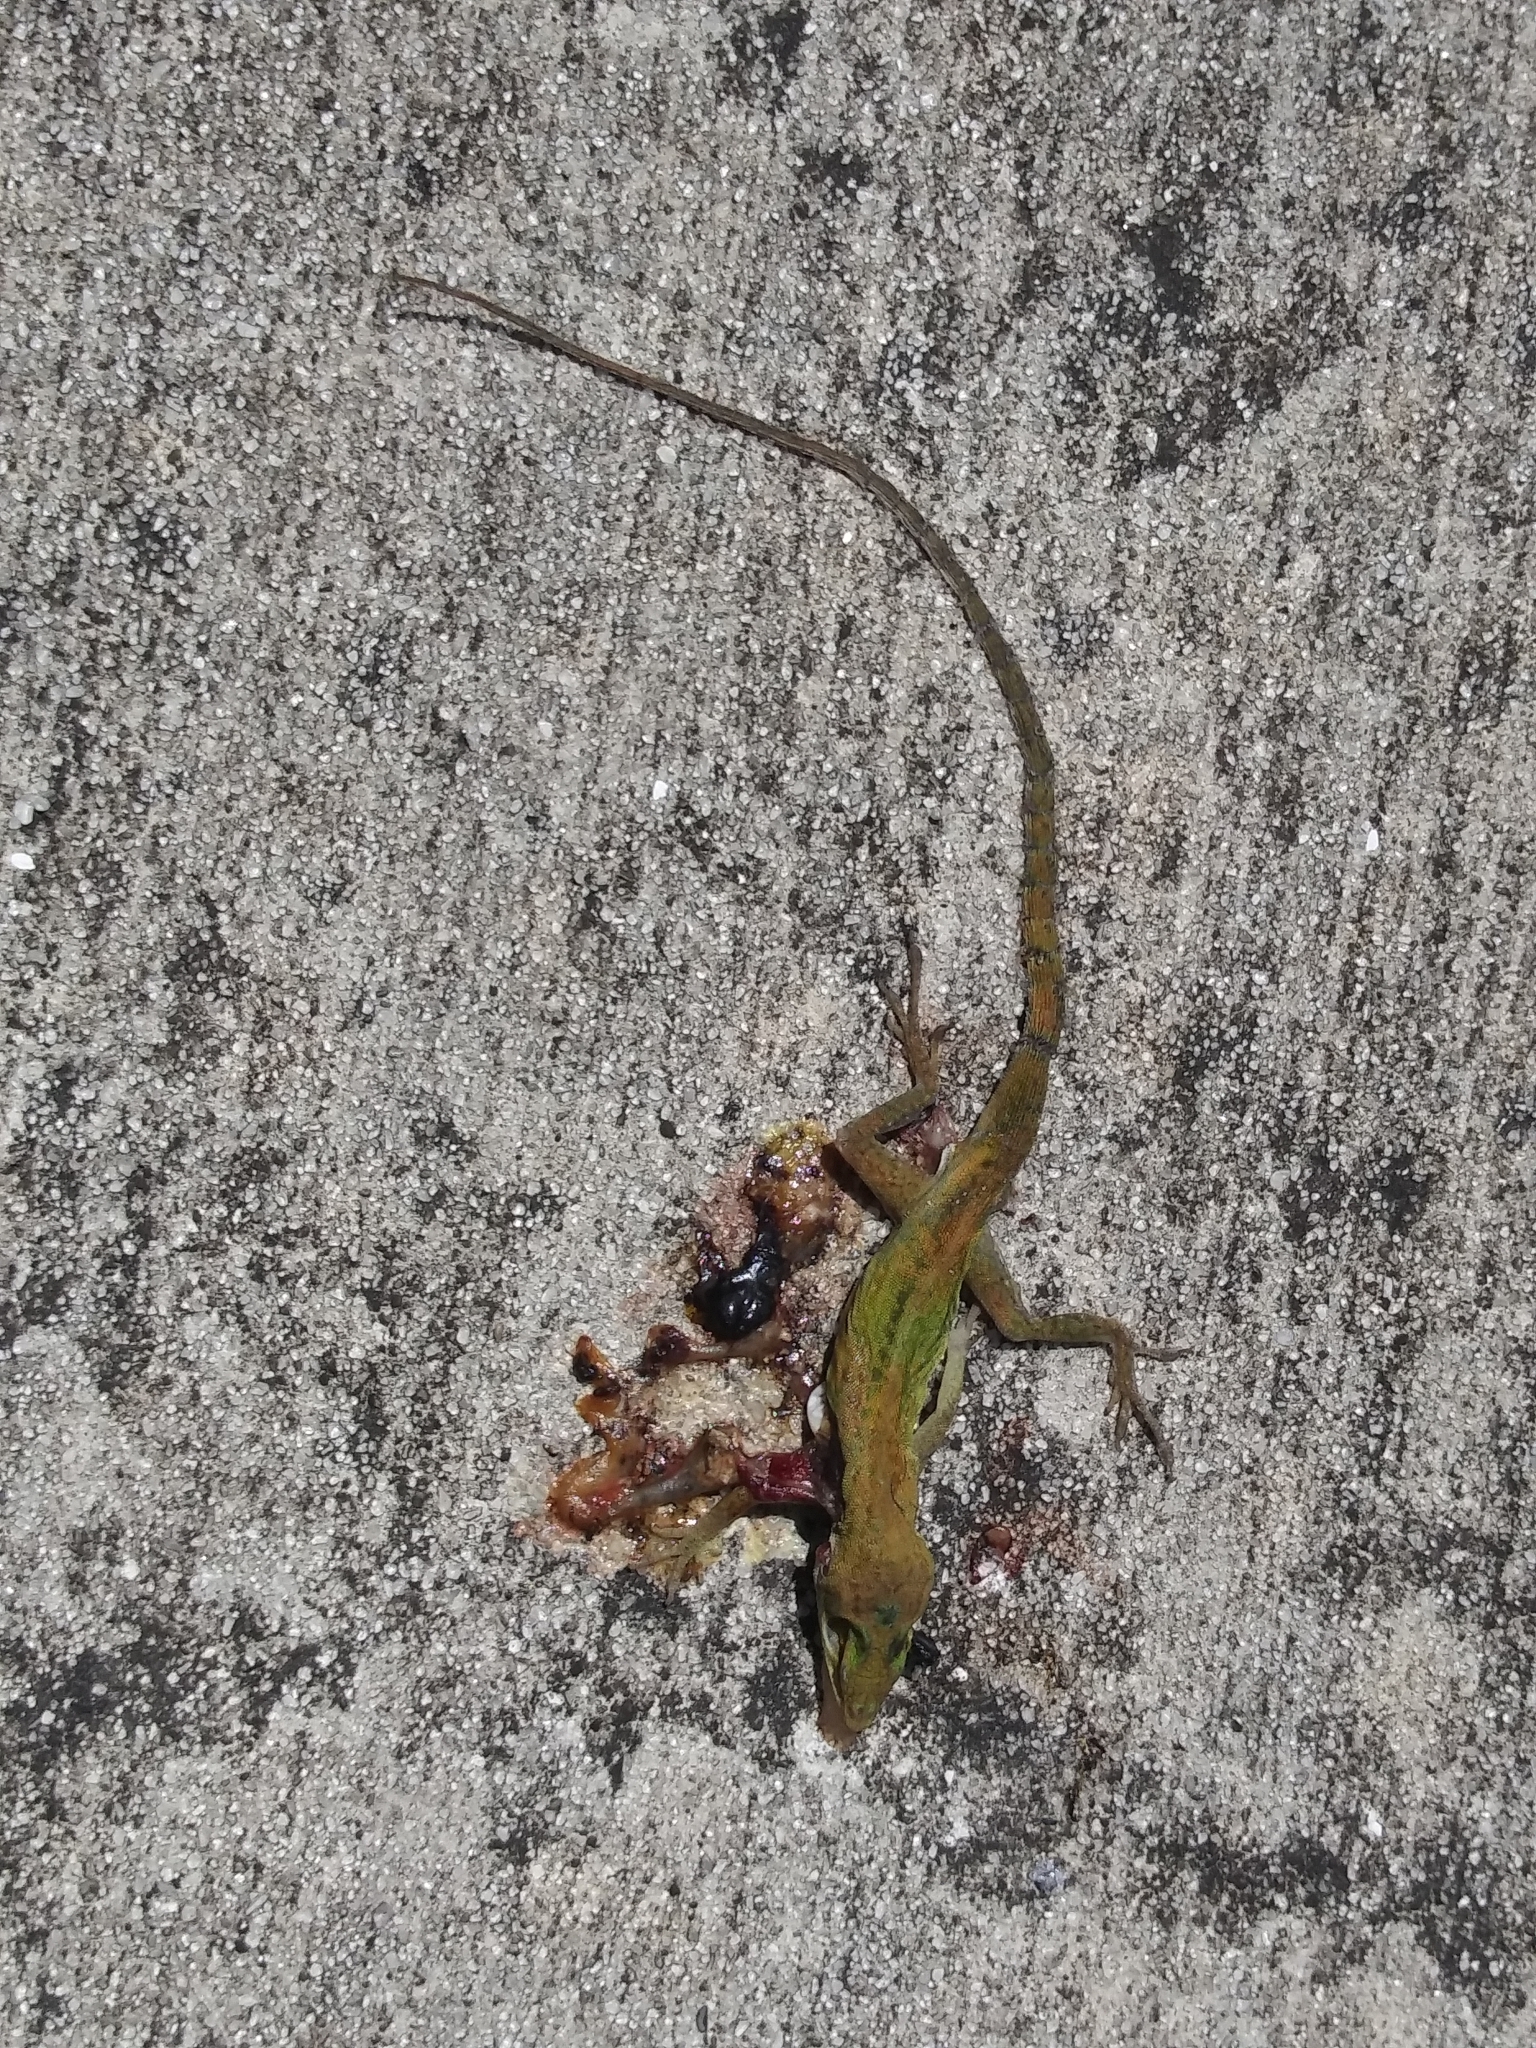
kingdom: Animalia
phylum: Chordata
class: Squamata
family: Dactyloidae
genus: Anolis
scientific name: Anolis carolinensis
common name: Green anole
